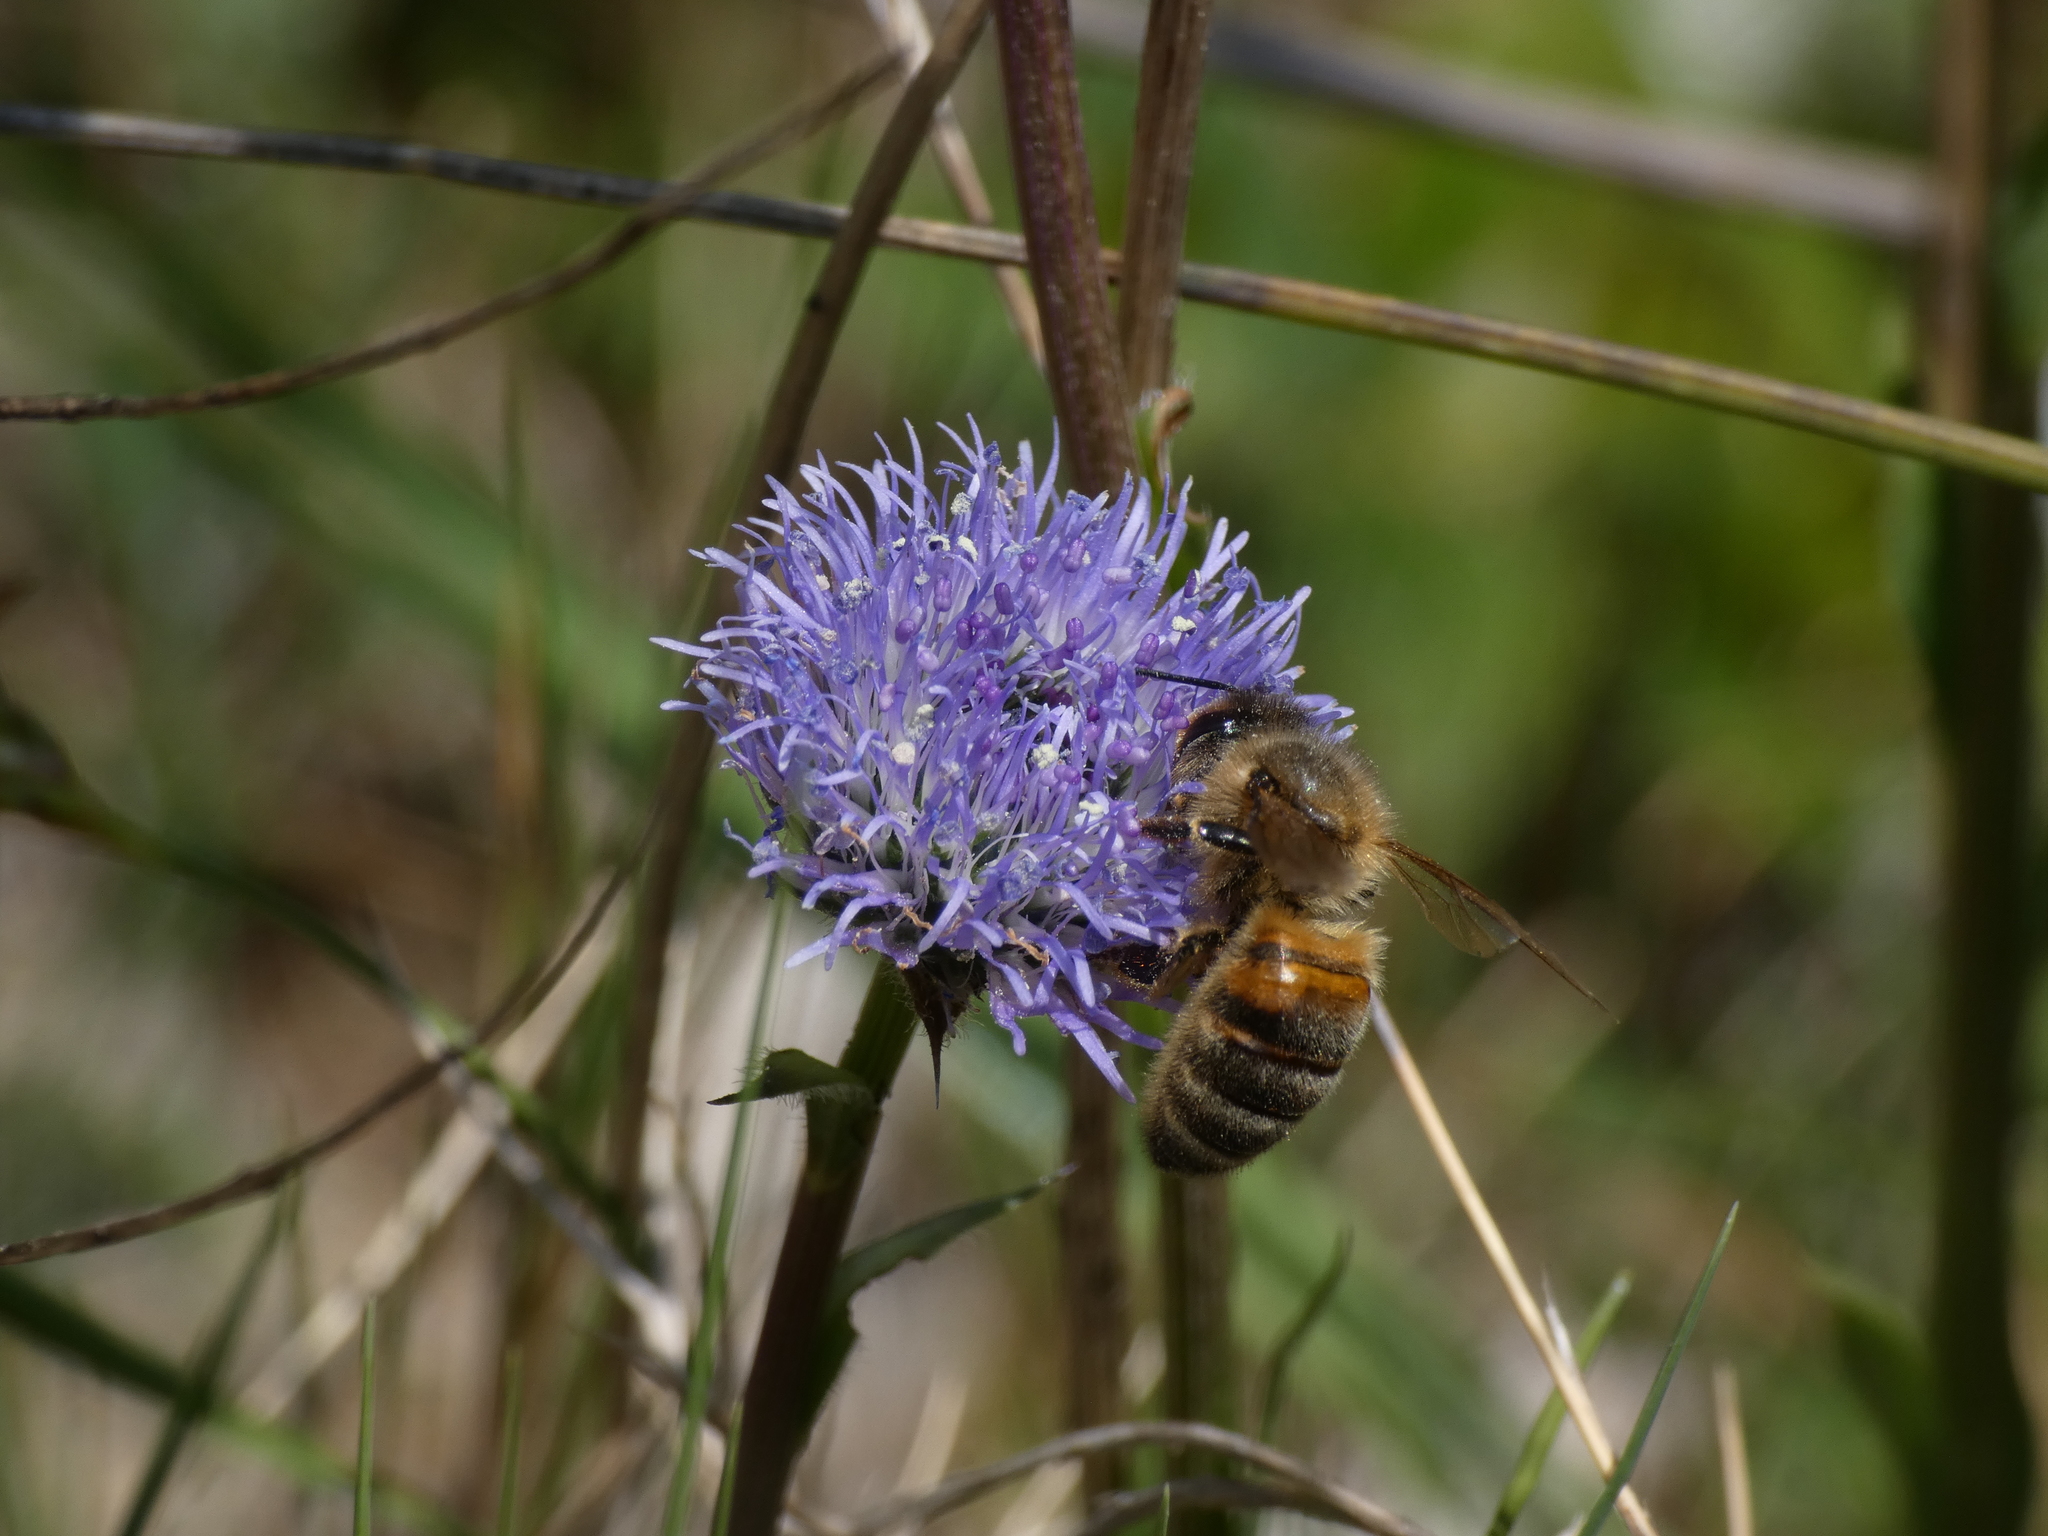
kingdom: Animalia
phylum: Arthropoda
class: Insecta
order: Hymenoptera
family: Apidae
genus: Apis
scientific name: Apis mellifera
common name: Honey bee
